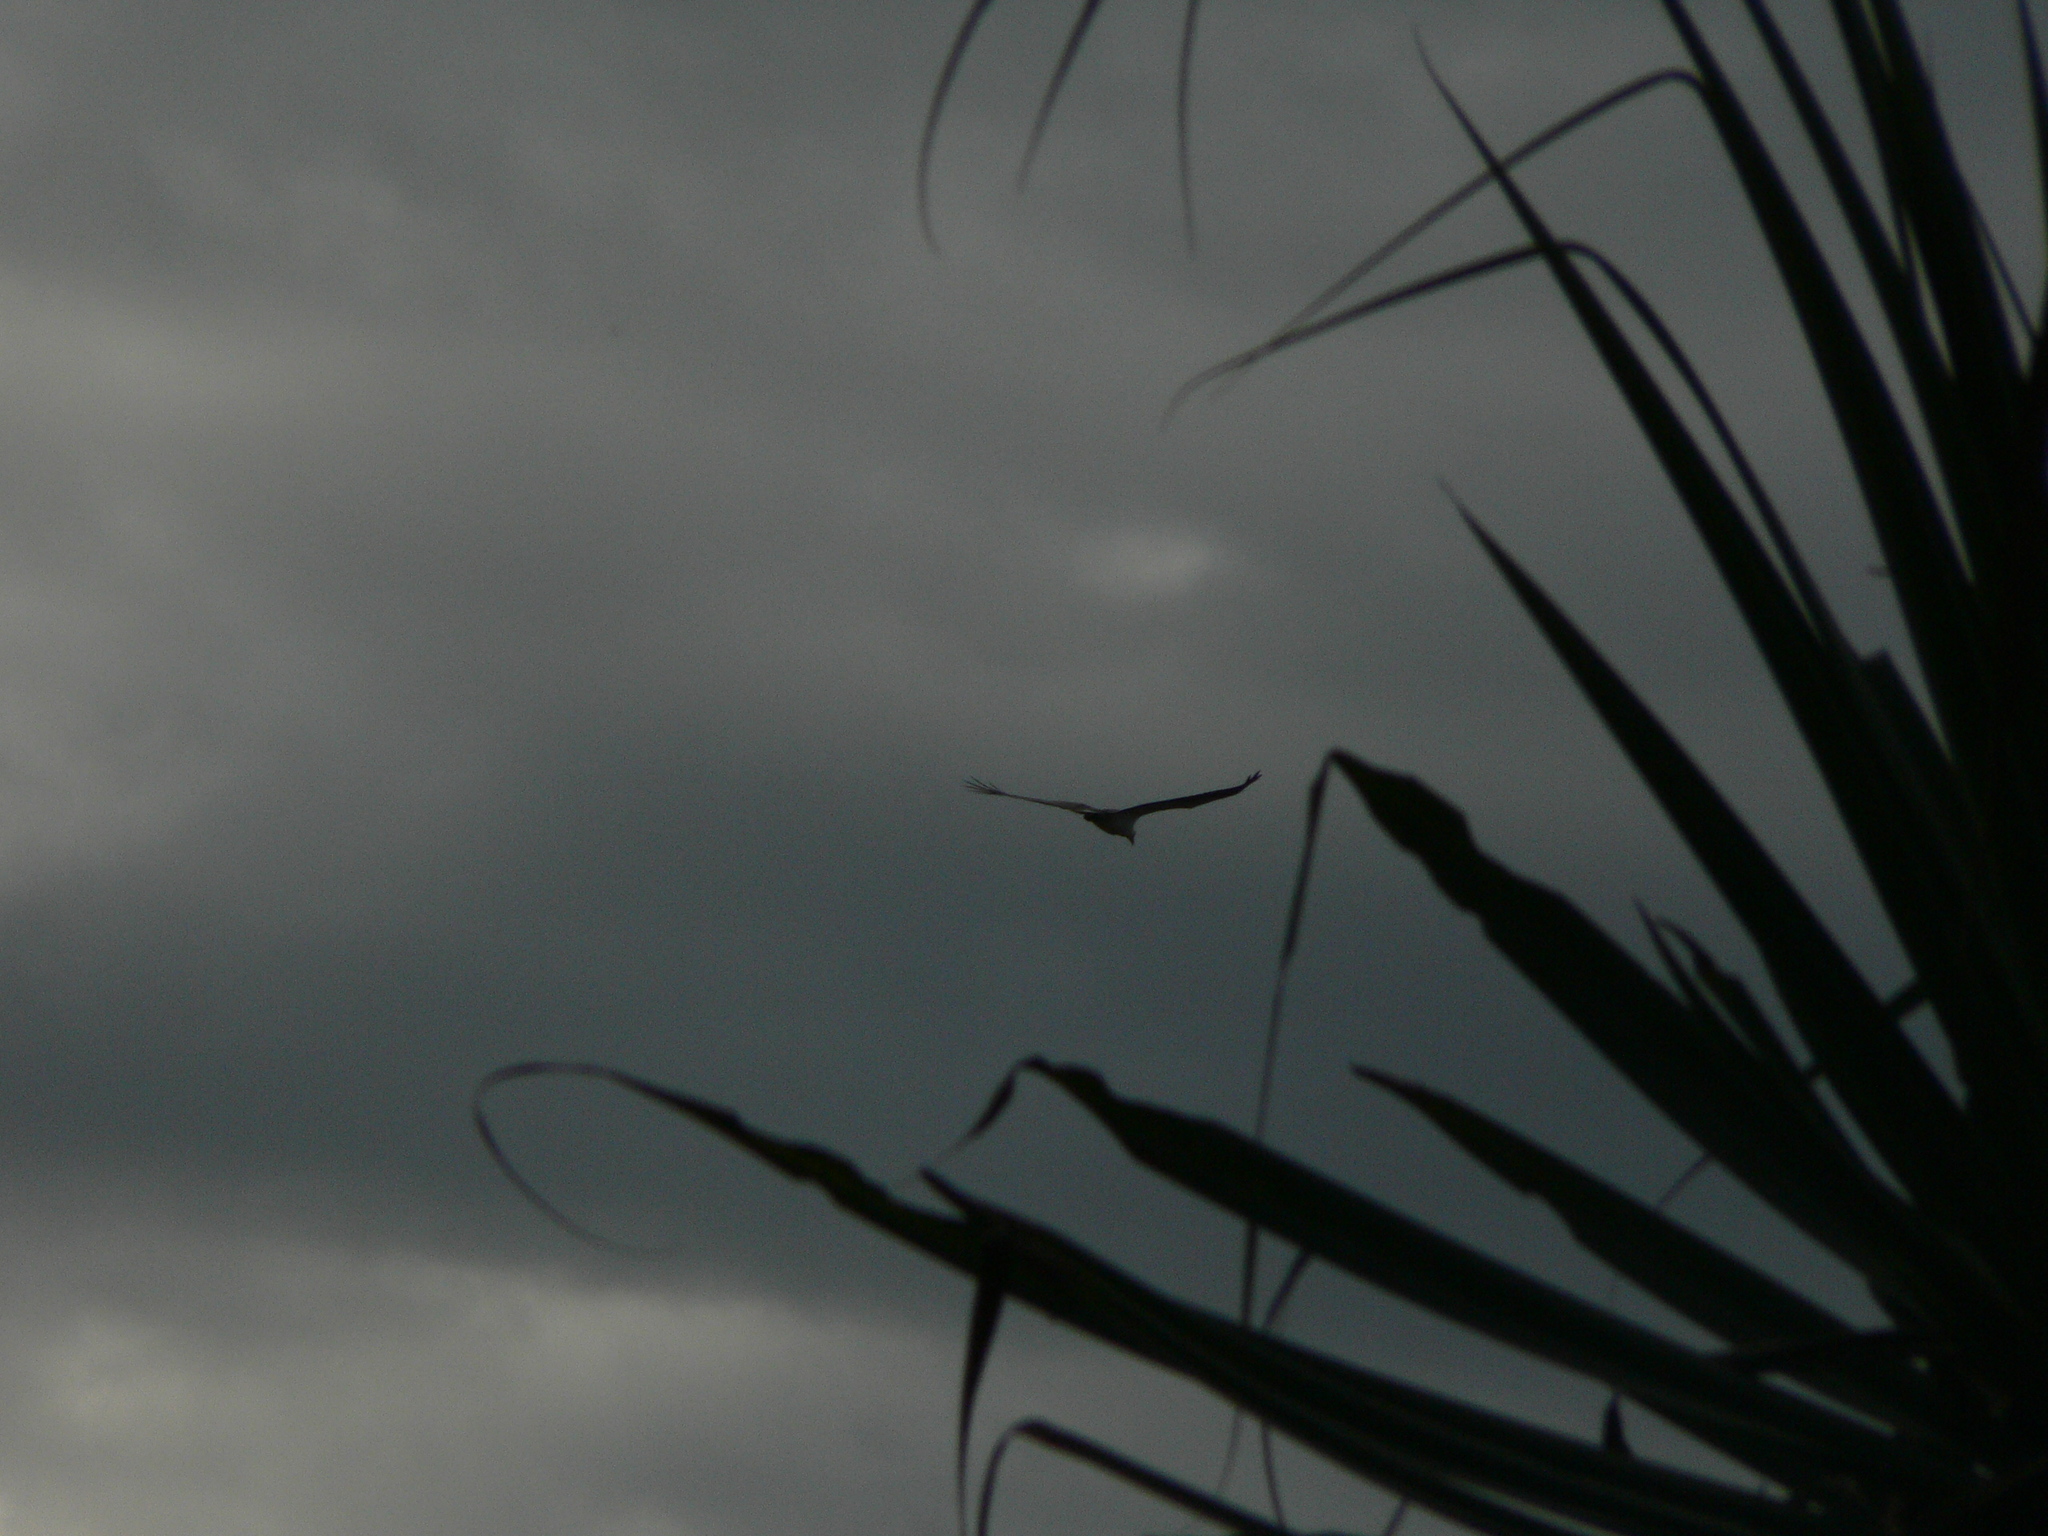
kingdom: Animalia
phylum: Chordata
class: Aves
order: Accipitriformes
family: Accipitridae
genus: Haliaeetus
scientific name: Haliaeetus leucogaster
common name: White-bellied sea eagle
